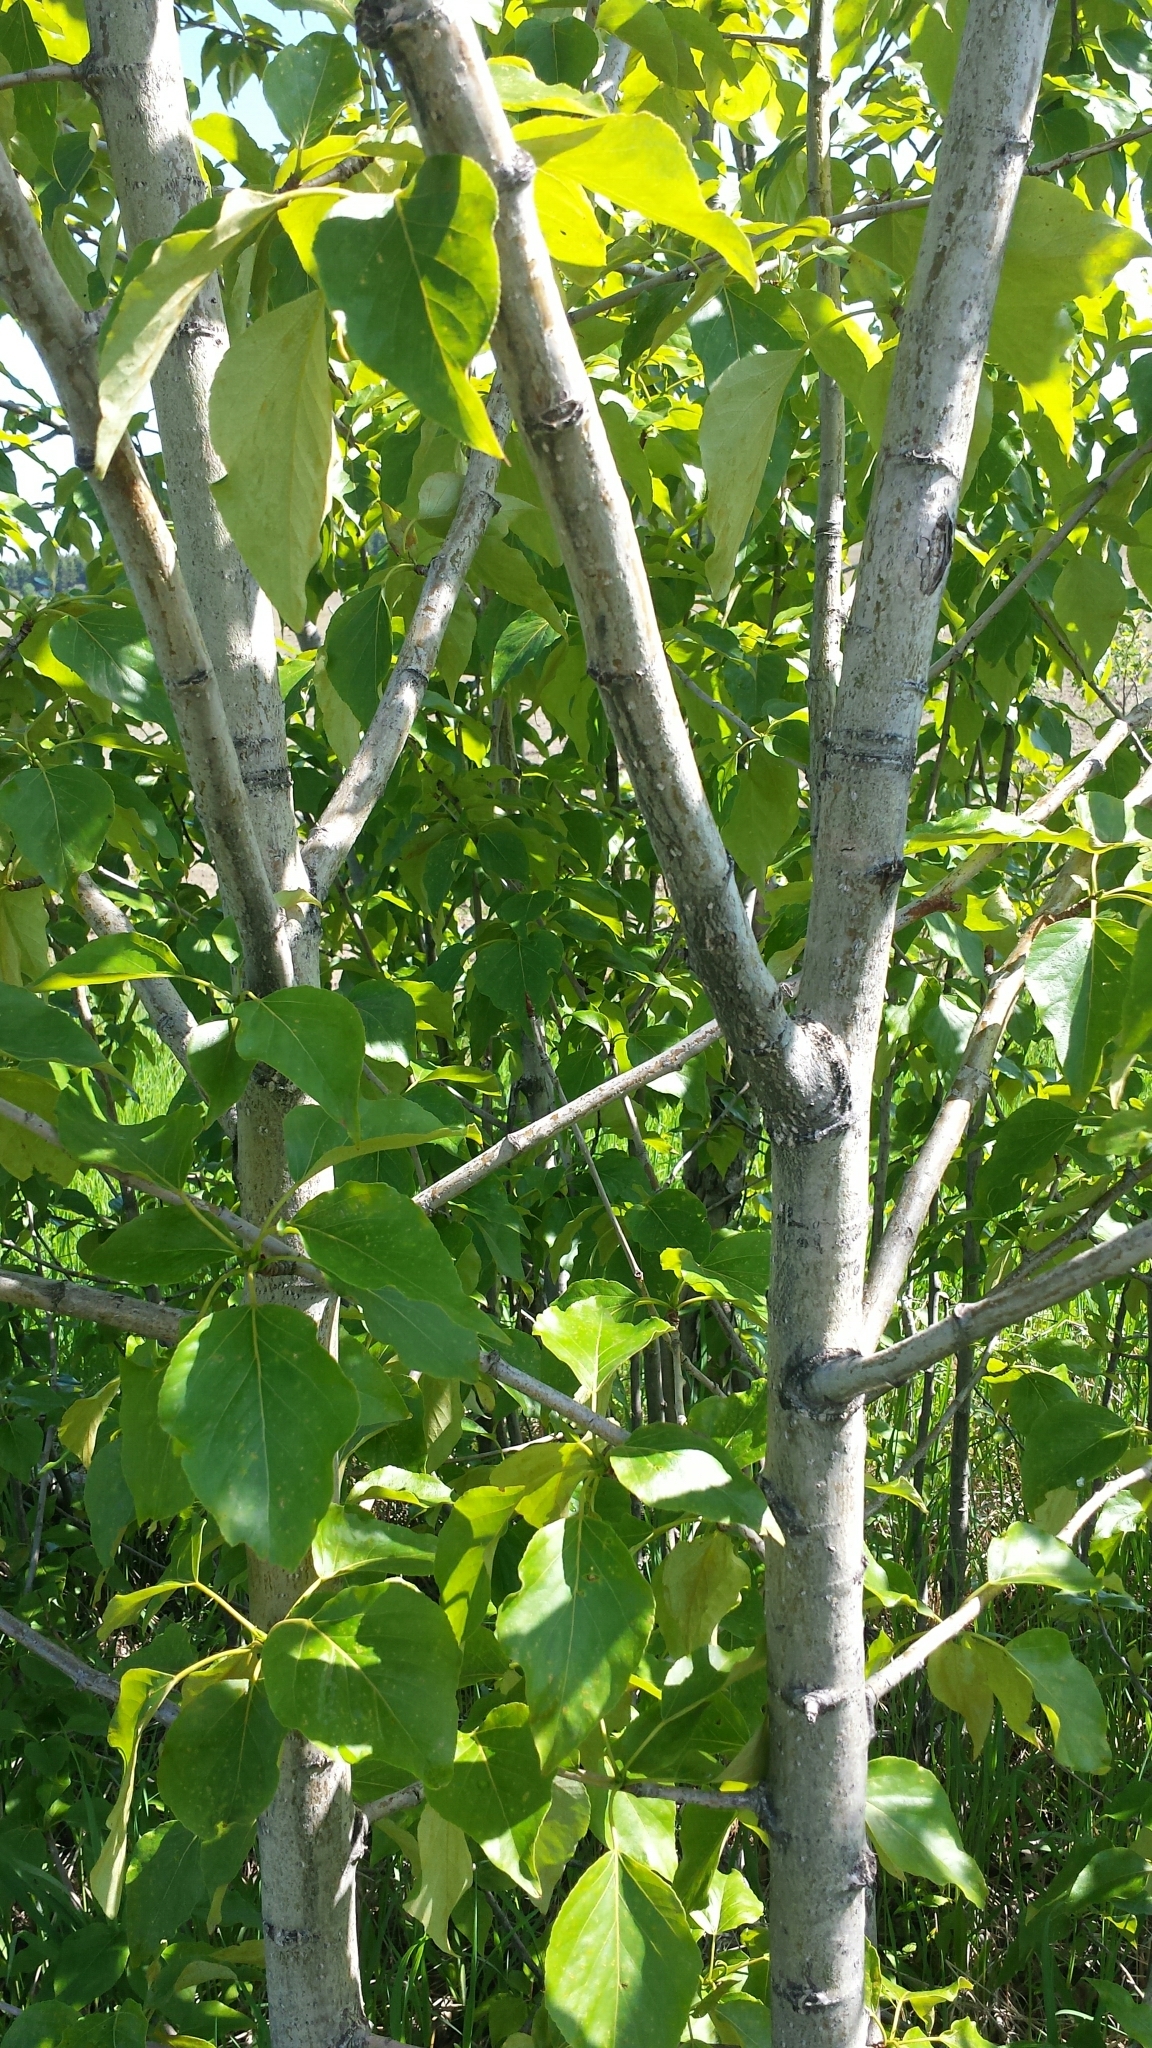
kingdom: Plantae
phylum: Tracheophyta
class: Magnoliopsida
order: Malpighiales
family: Salicaceae
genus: Populus
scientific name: Populus balsamifera
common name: Balsam poplar
